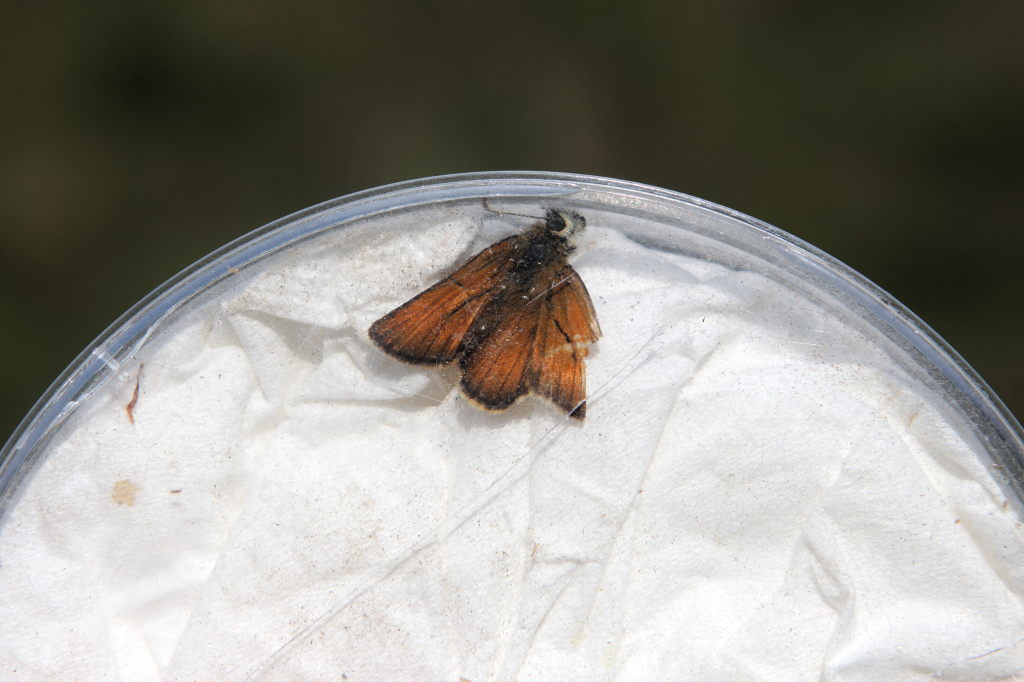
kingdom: Animalia
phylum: Arthropoda
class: Insecta
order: Lepidoptera
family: Hesperiidae
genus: Thymelicus
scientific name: Thymelicus sylvestris
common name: Small skipper
